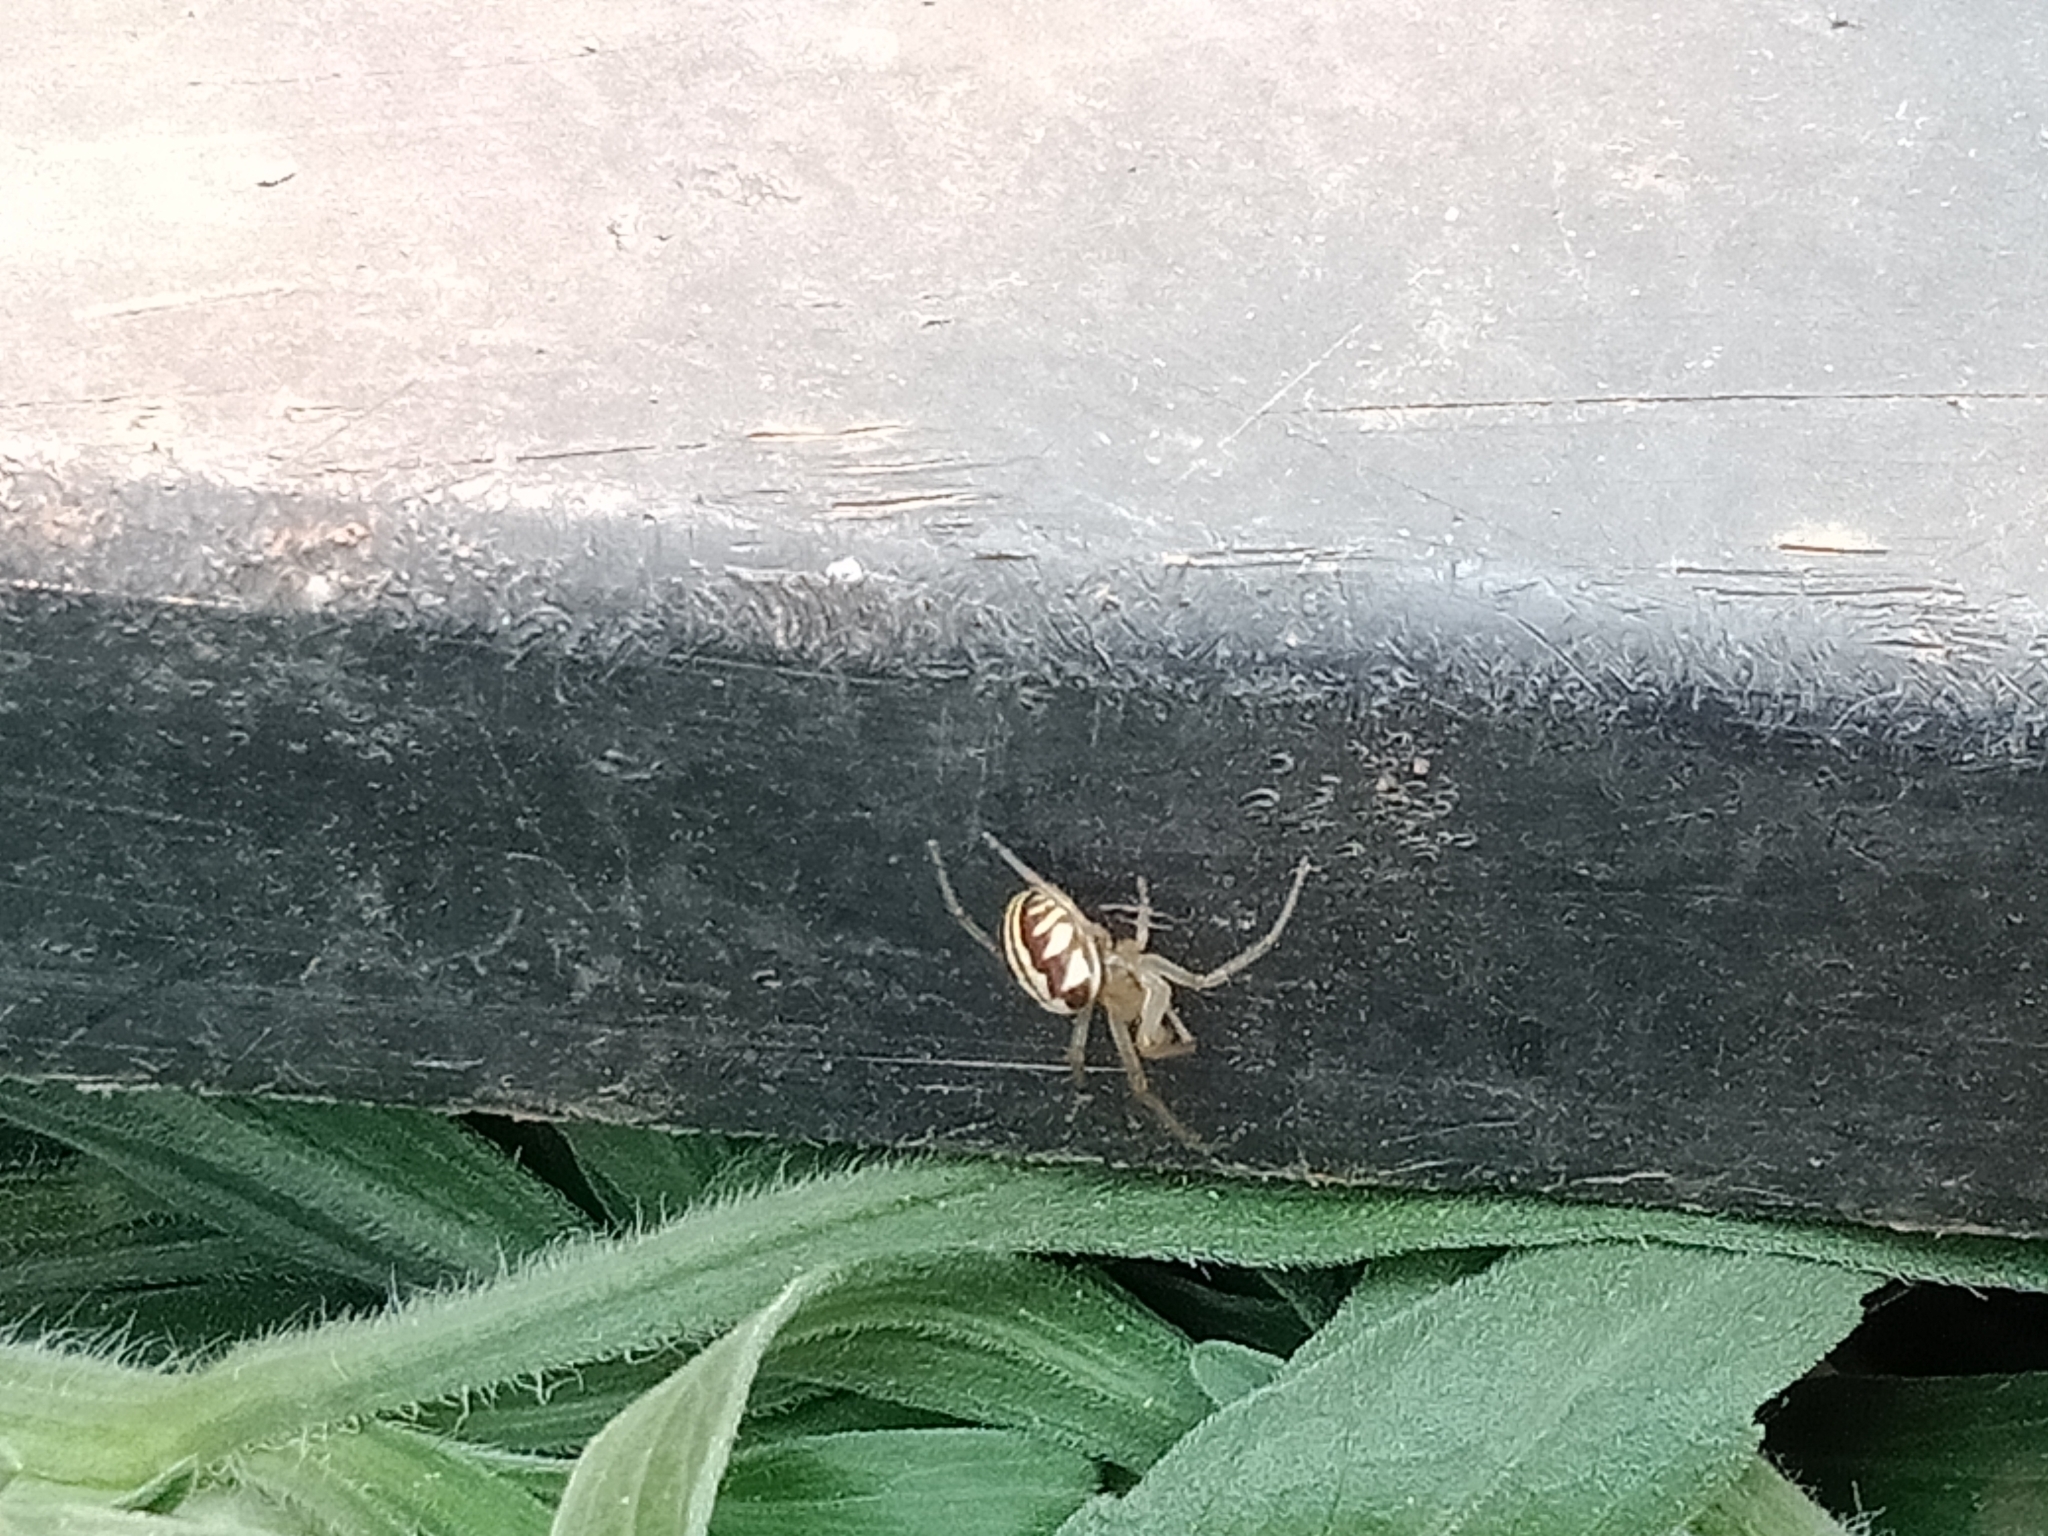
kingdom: Animalia
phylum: Arthropoda
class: Arachnida
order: Araneae
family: Araneidae
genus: Phonognatha
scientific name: Phonognatha graeffei
